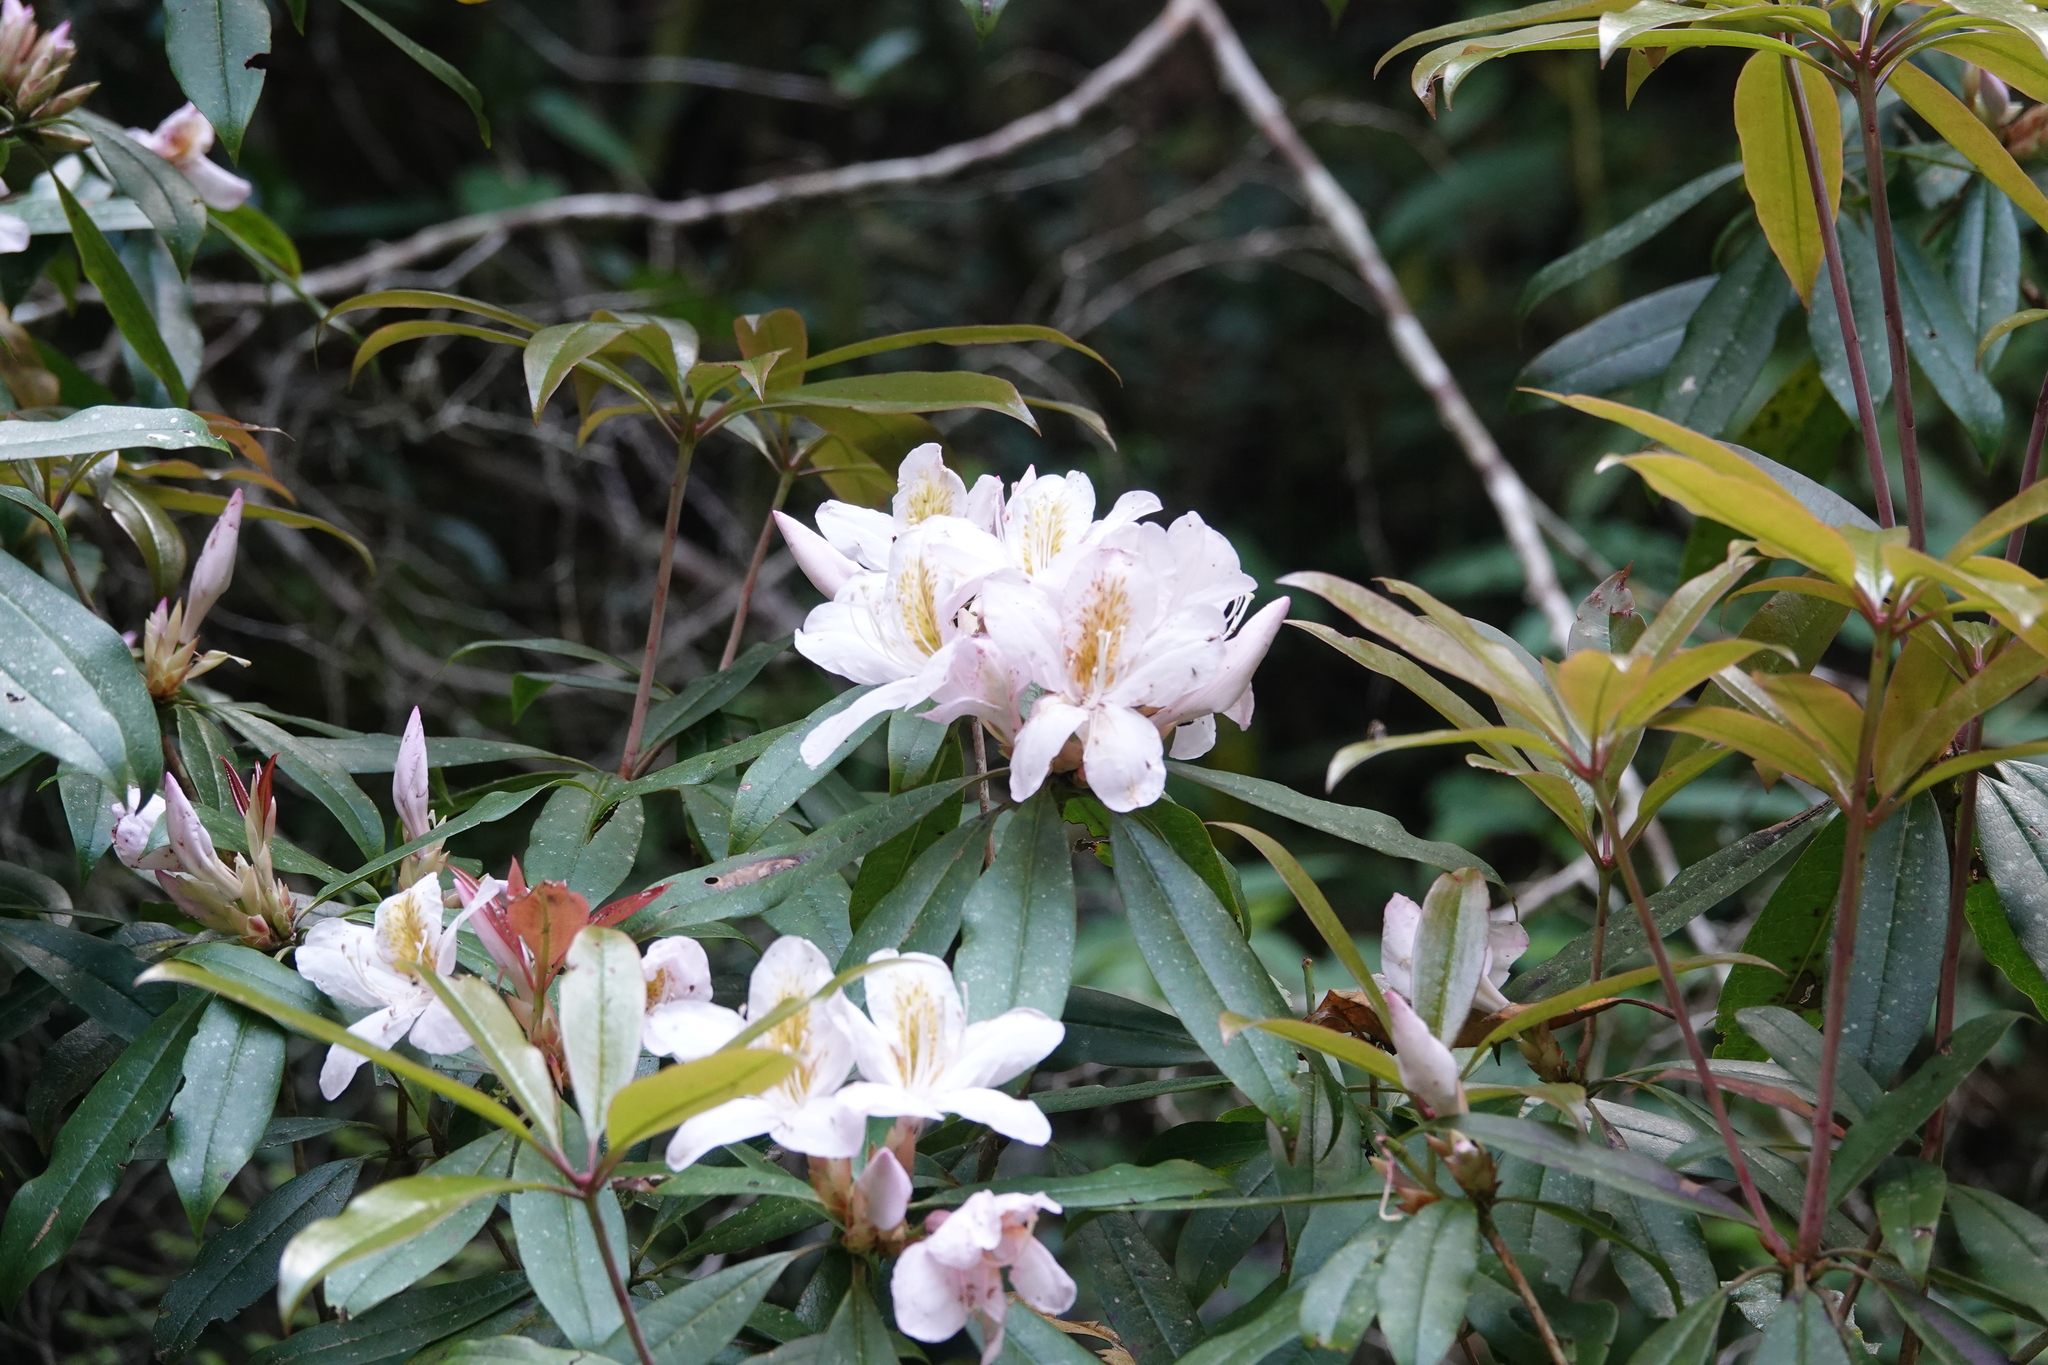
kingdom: Plantae
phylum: Tracheophyta
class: Magnoliopsida
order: Ericales
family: Ericaceae
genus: Rhododendron
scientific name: Rhododendron latoucheae
